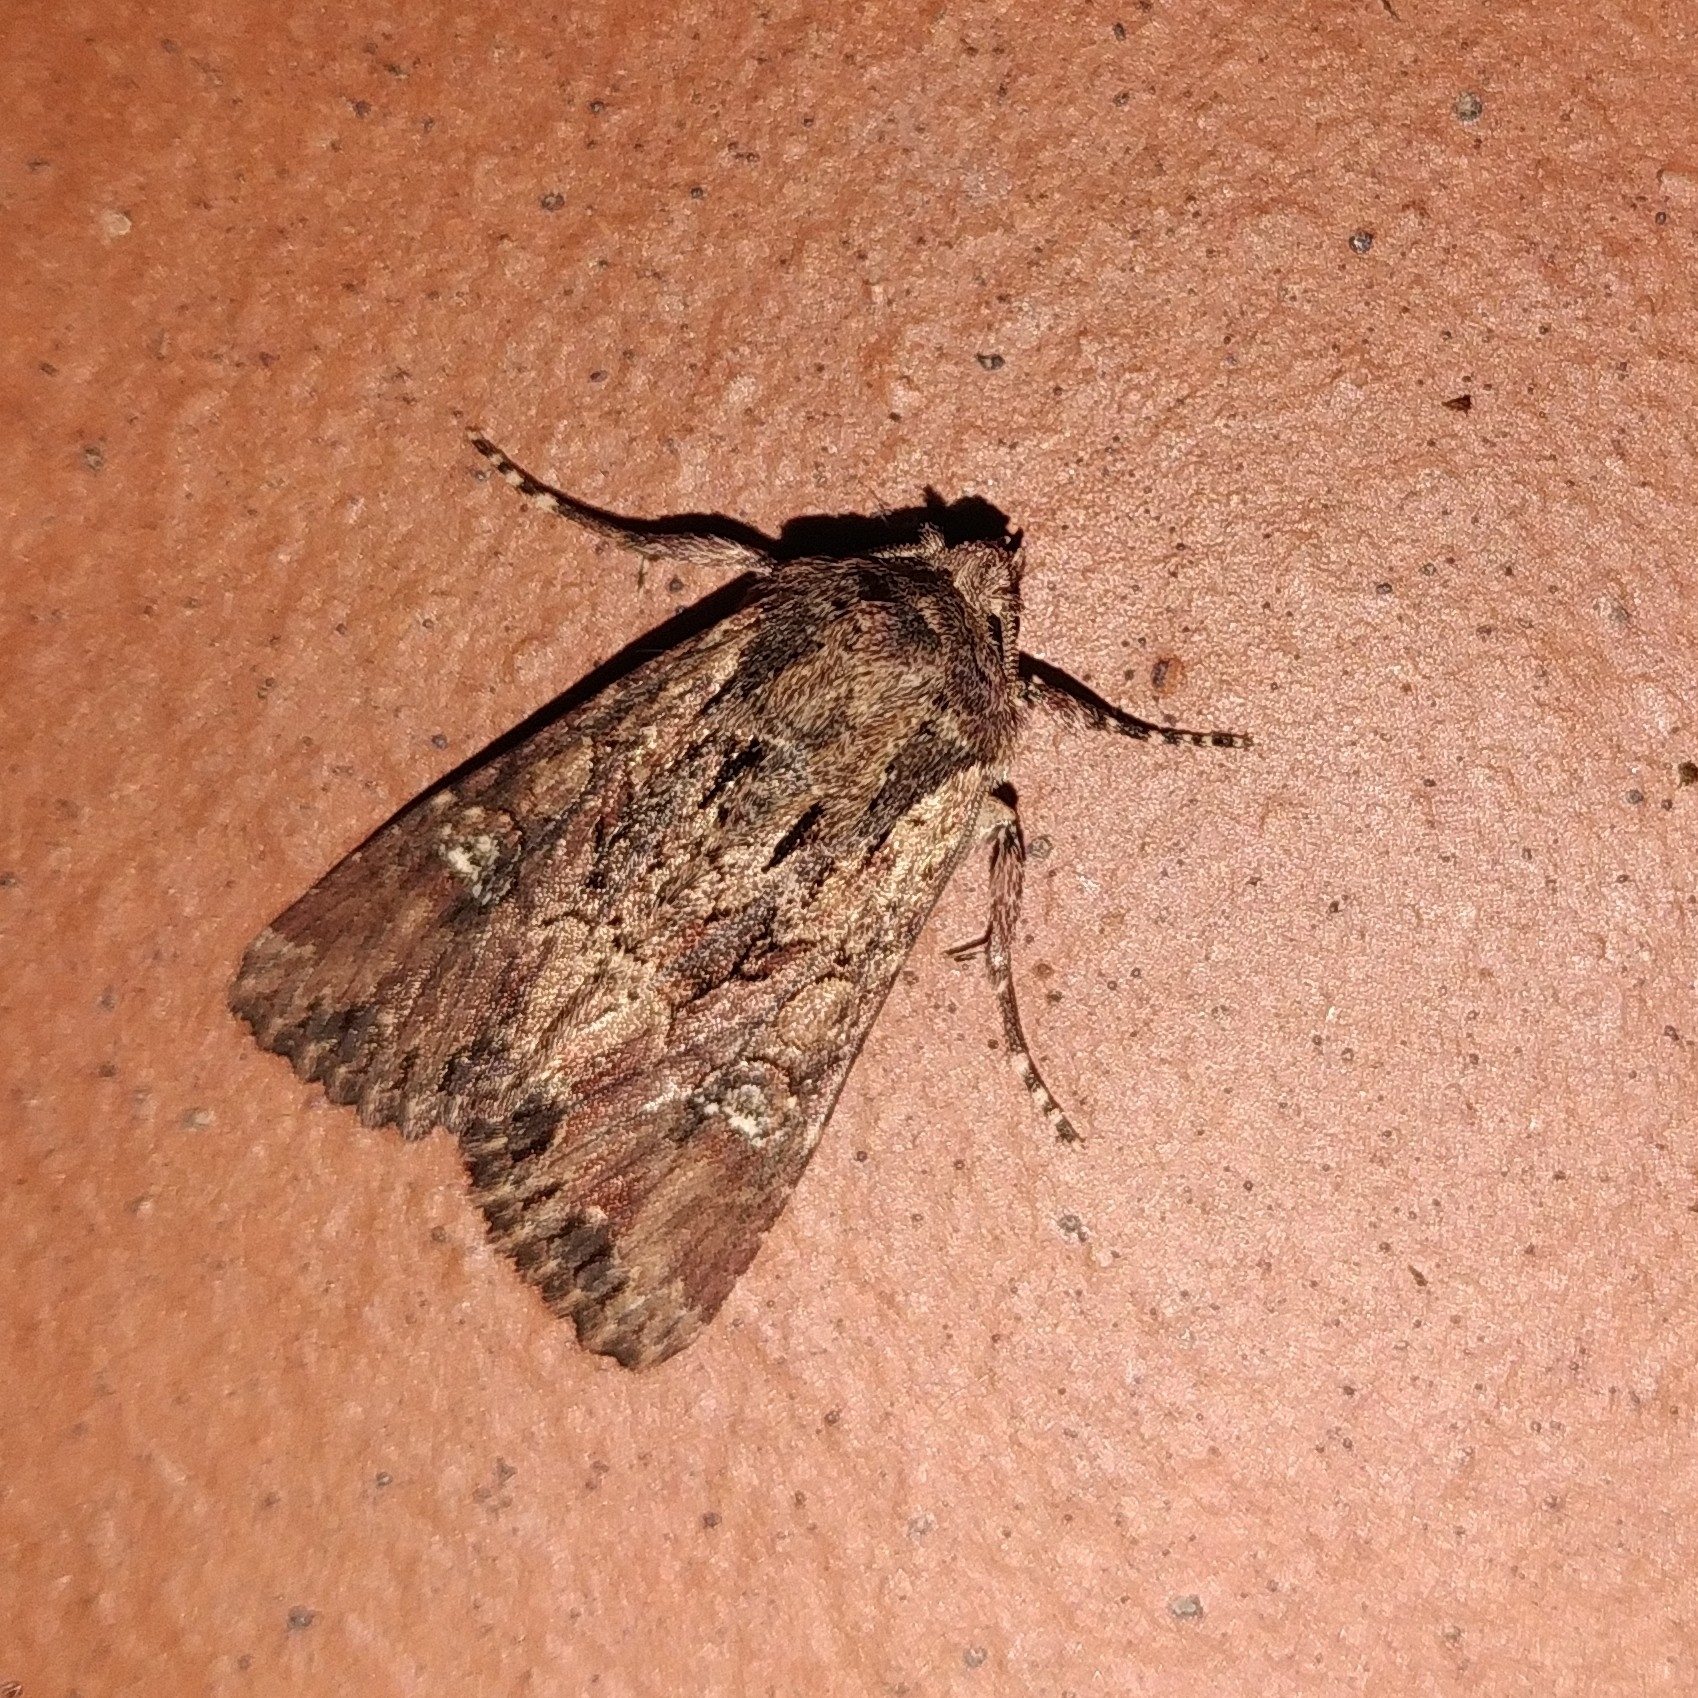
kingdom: Animalia
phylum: Arthropoda
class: Insecta
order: Lepidoptera
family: Noctuidae
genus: Mniotype
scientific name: Mniotype occidentalis
